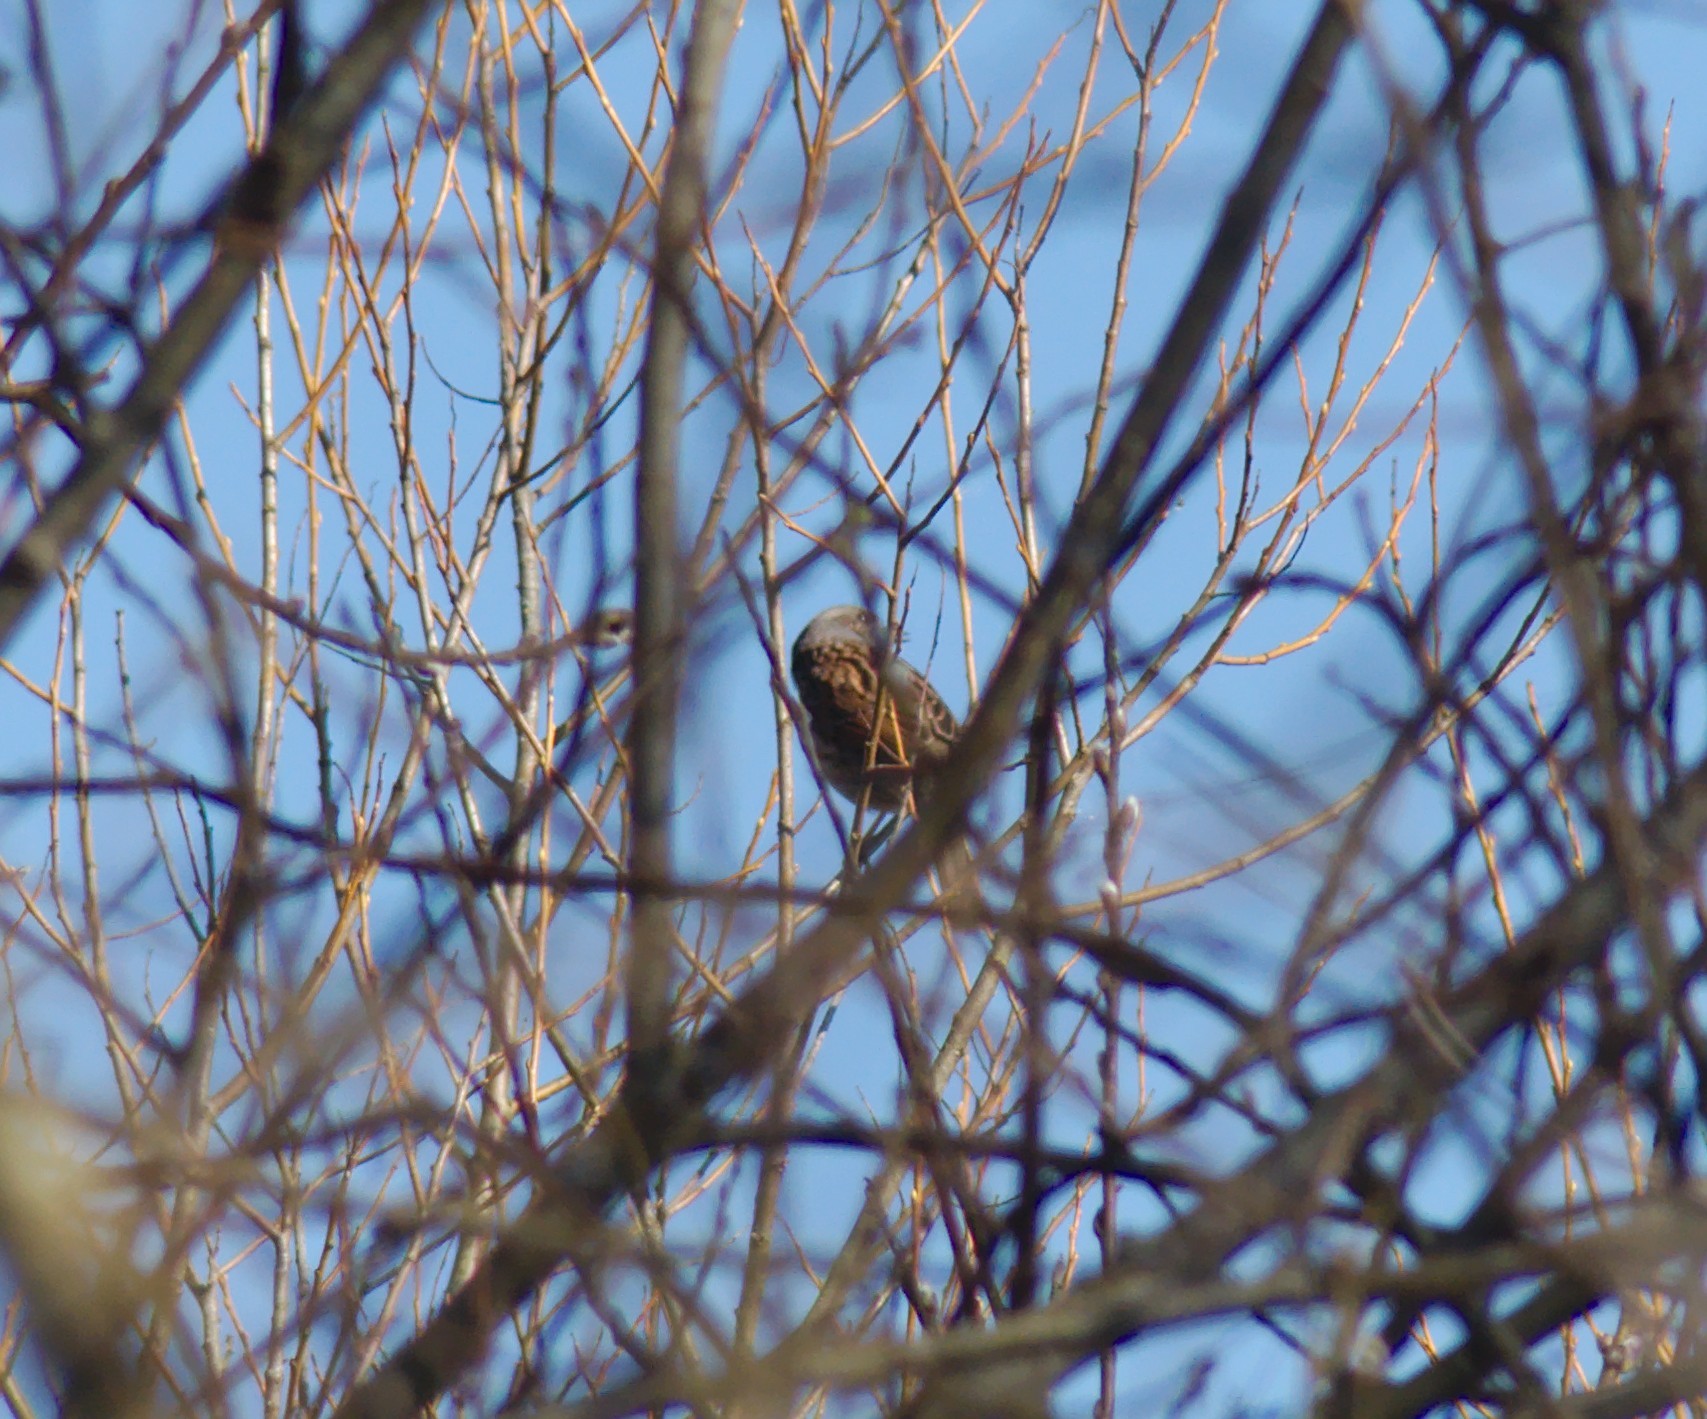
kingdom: Animalia
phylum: Chordata
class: Aves
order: Passeriformes
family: Prunellidae
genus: Prunella
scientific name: Prunella modularis
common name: Dunnock
